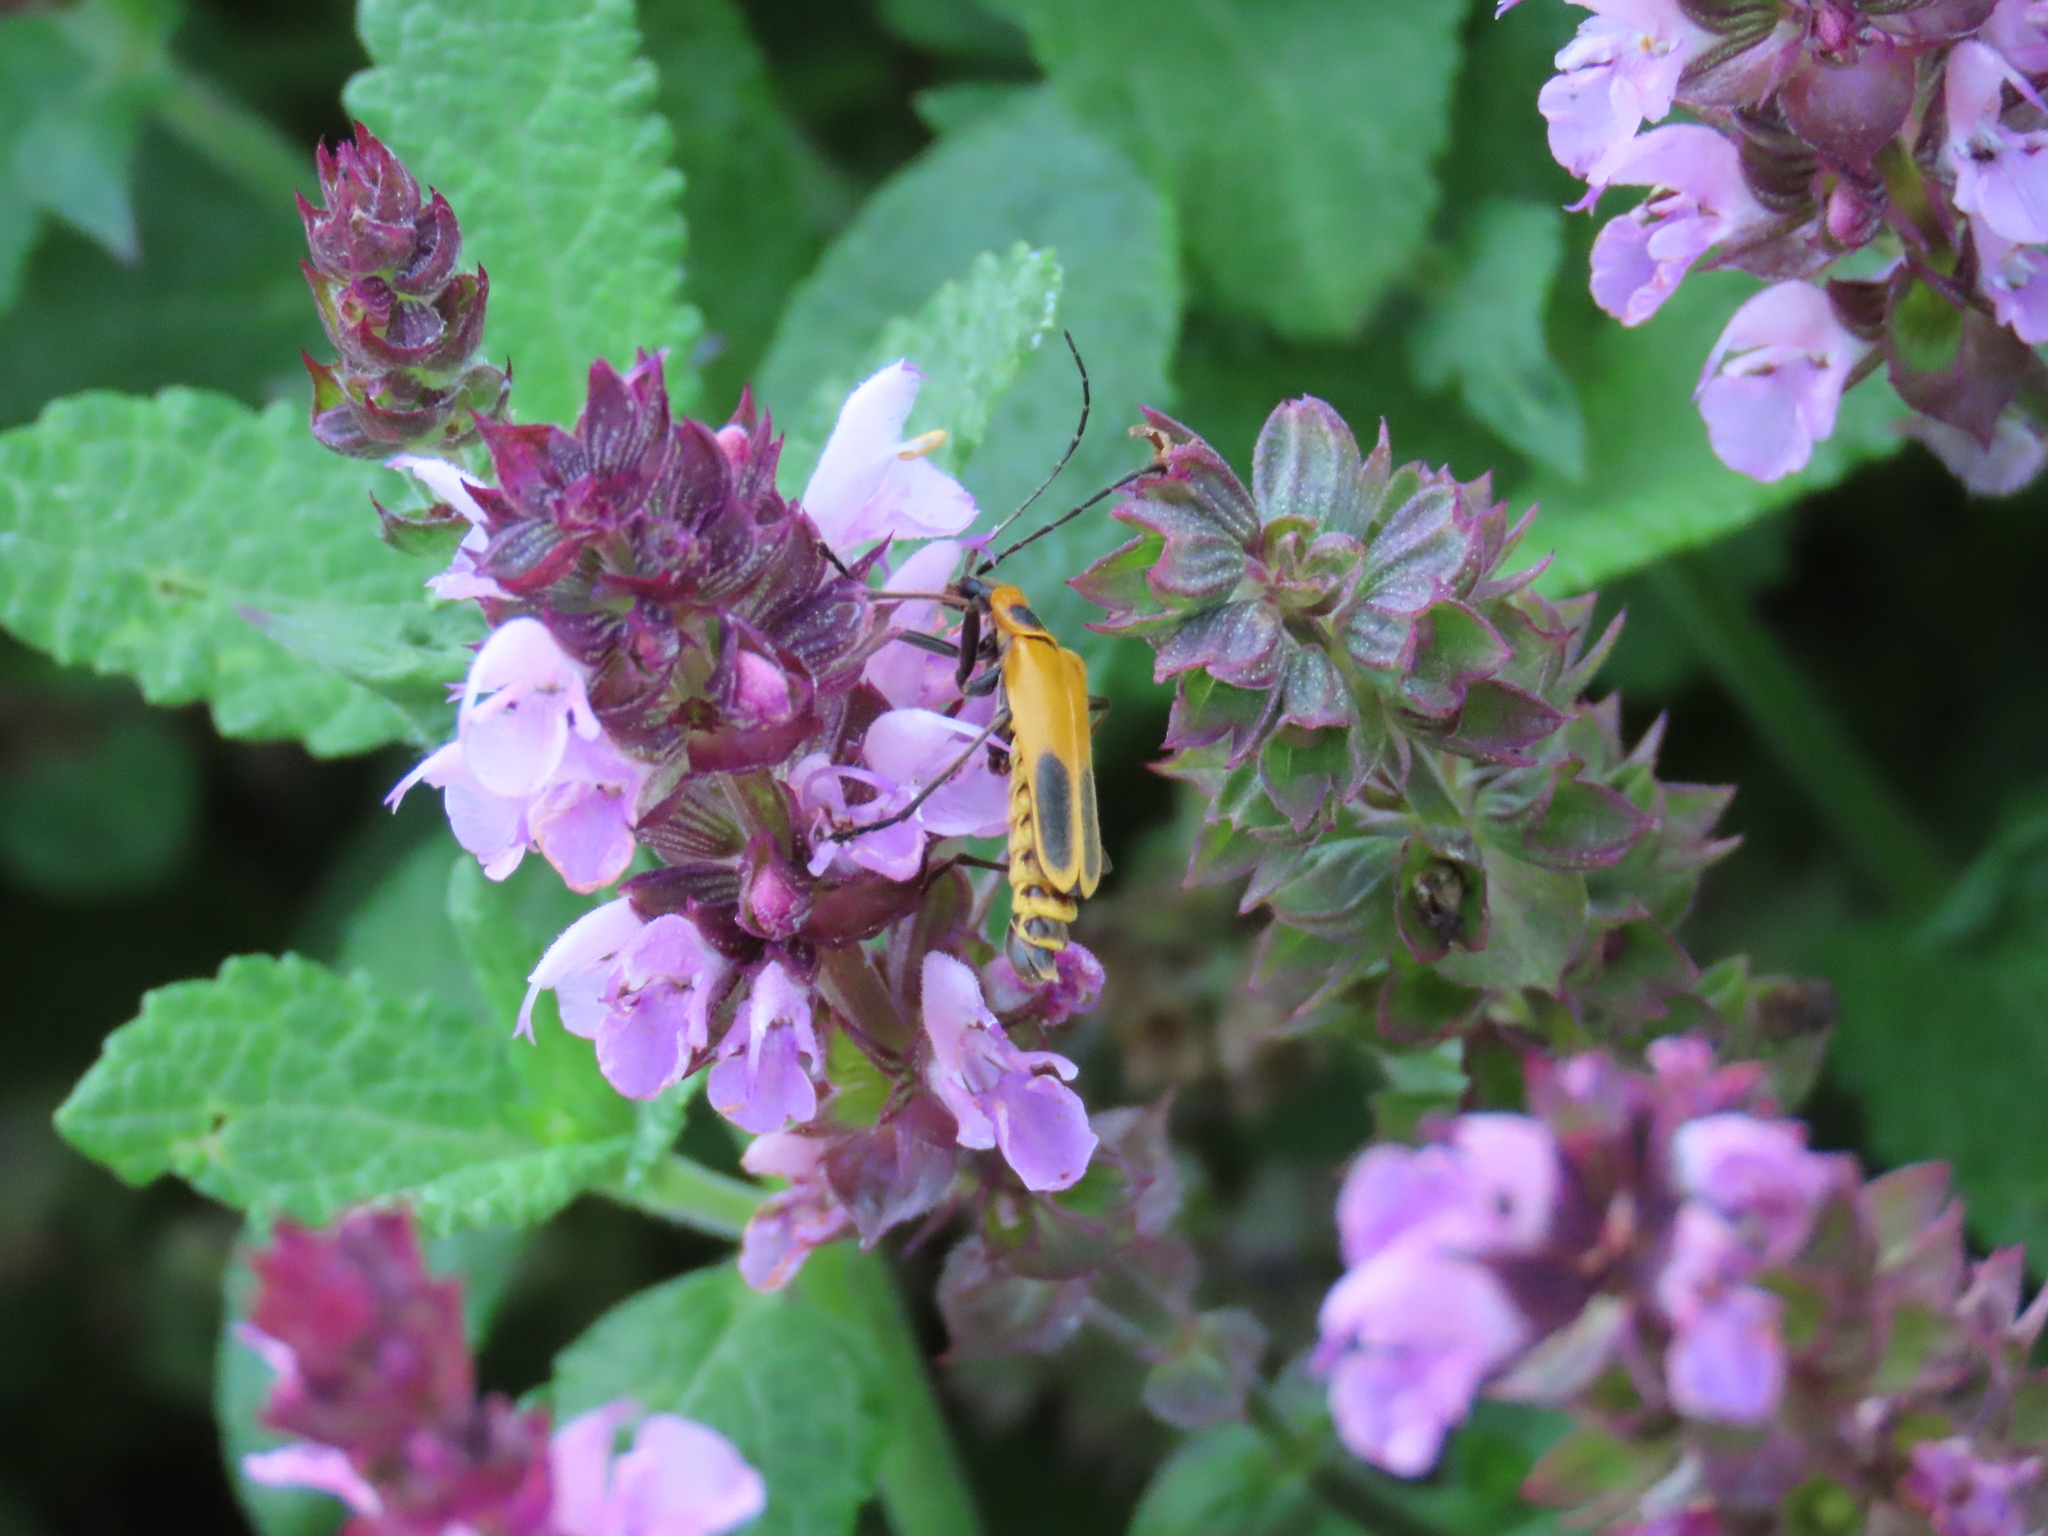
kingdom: Animalia
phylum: Arthropoda
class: Insecta
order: Coleoptera
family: Cantharidae
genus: Chauliognathus
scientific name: Chauliognathus pensylvanicus
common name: Goldenrod soldier beetle
